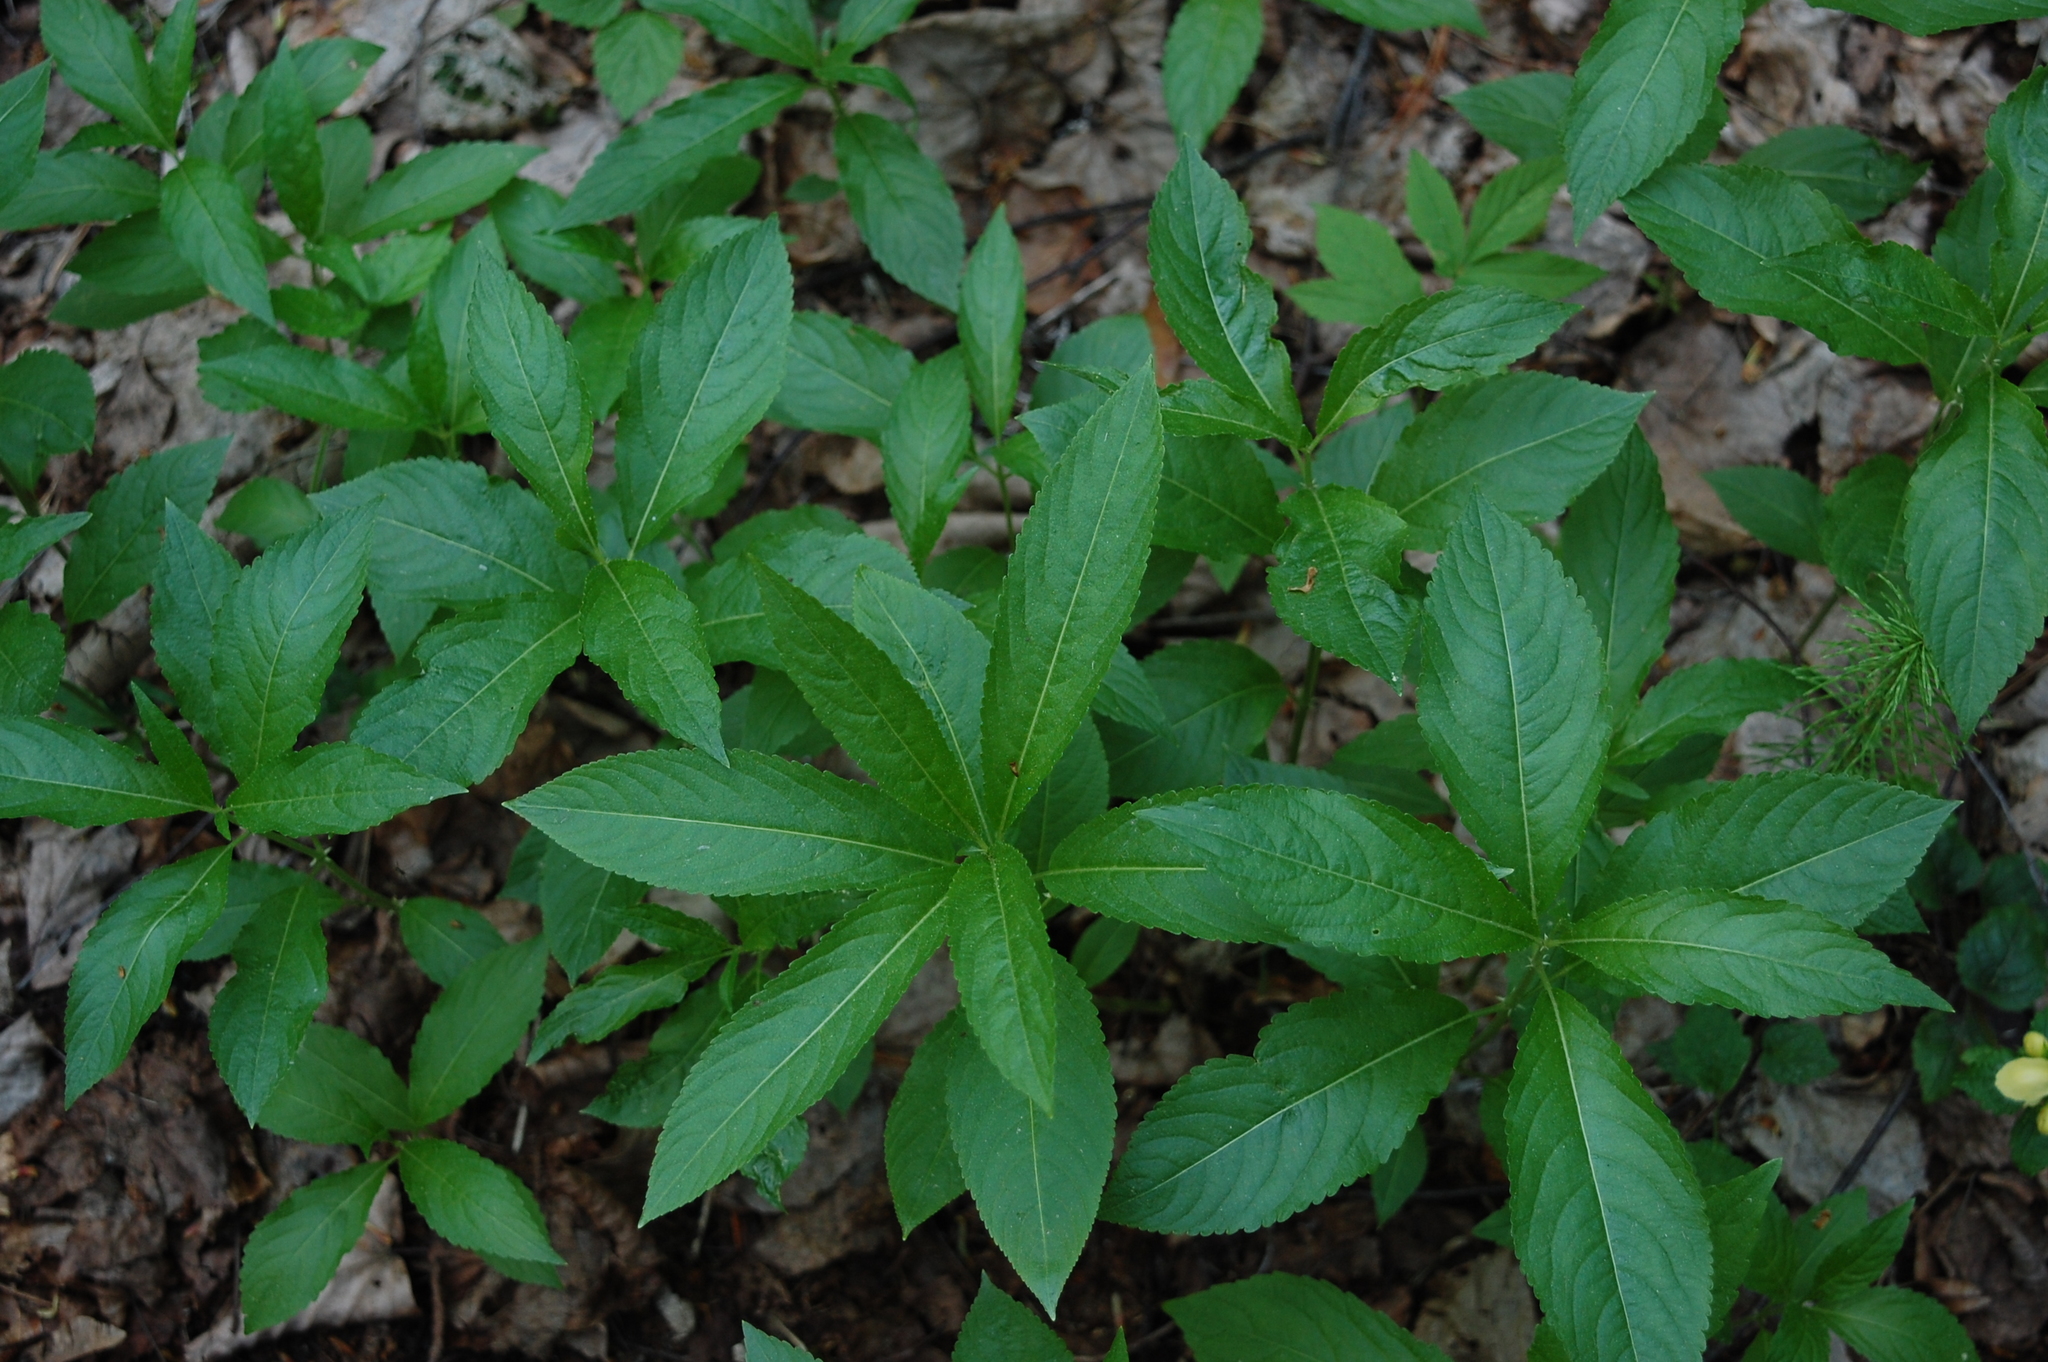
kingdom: Plantae
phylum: Tracheophyta
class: Magnoliopsida
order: Malpighiales
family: Euphorbiaceae
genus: Mercurialis
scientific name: Mercurialis perennis
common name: Dog mercury
